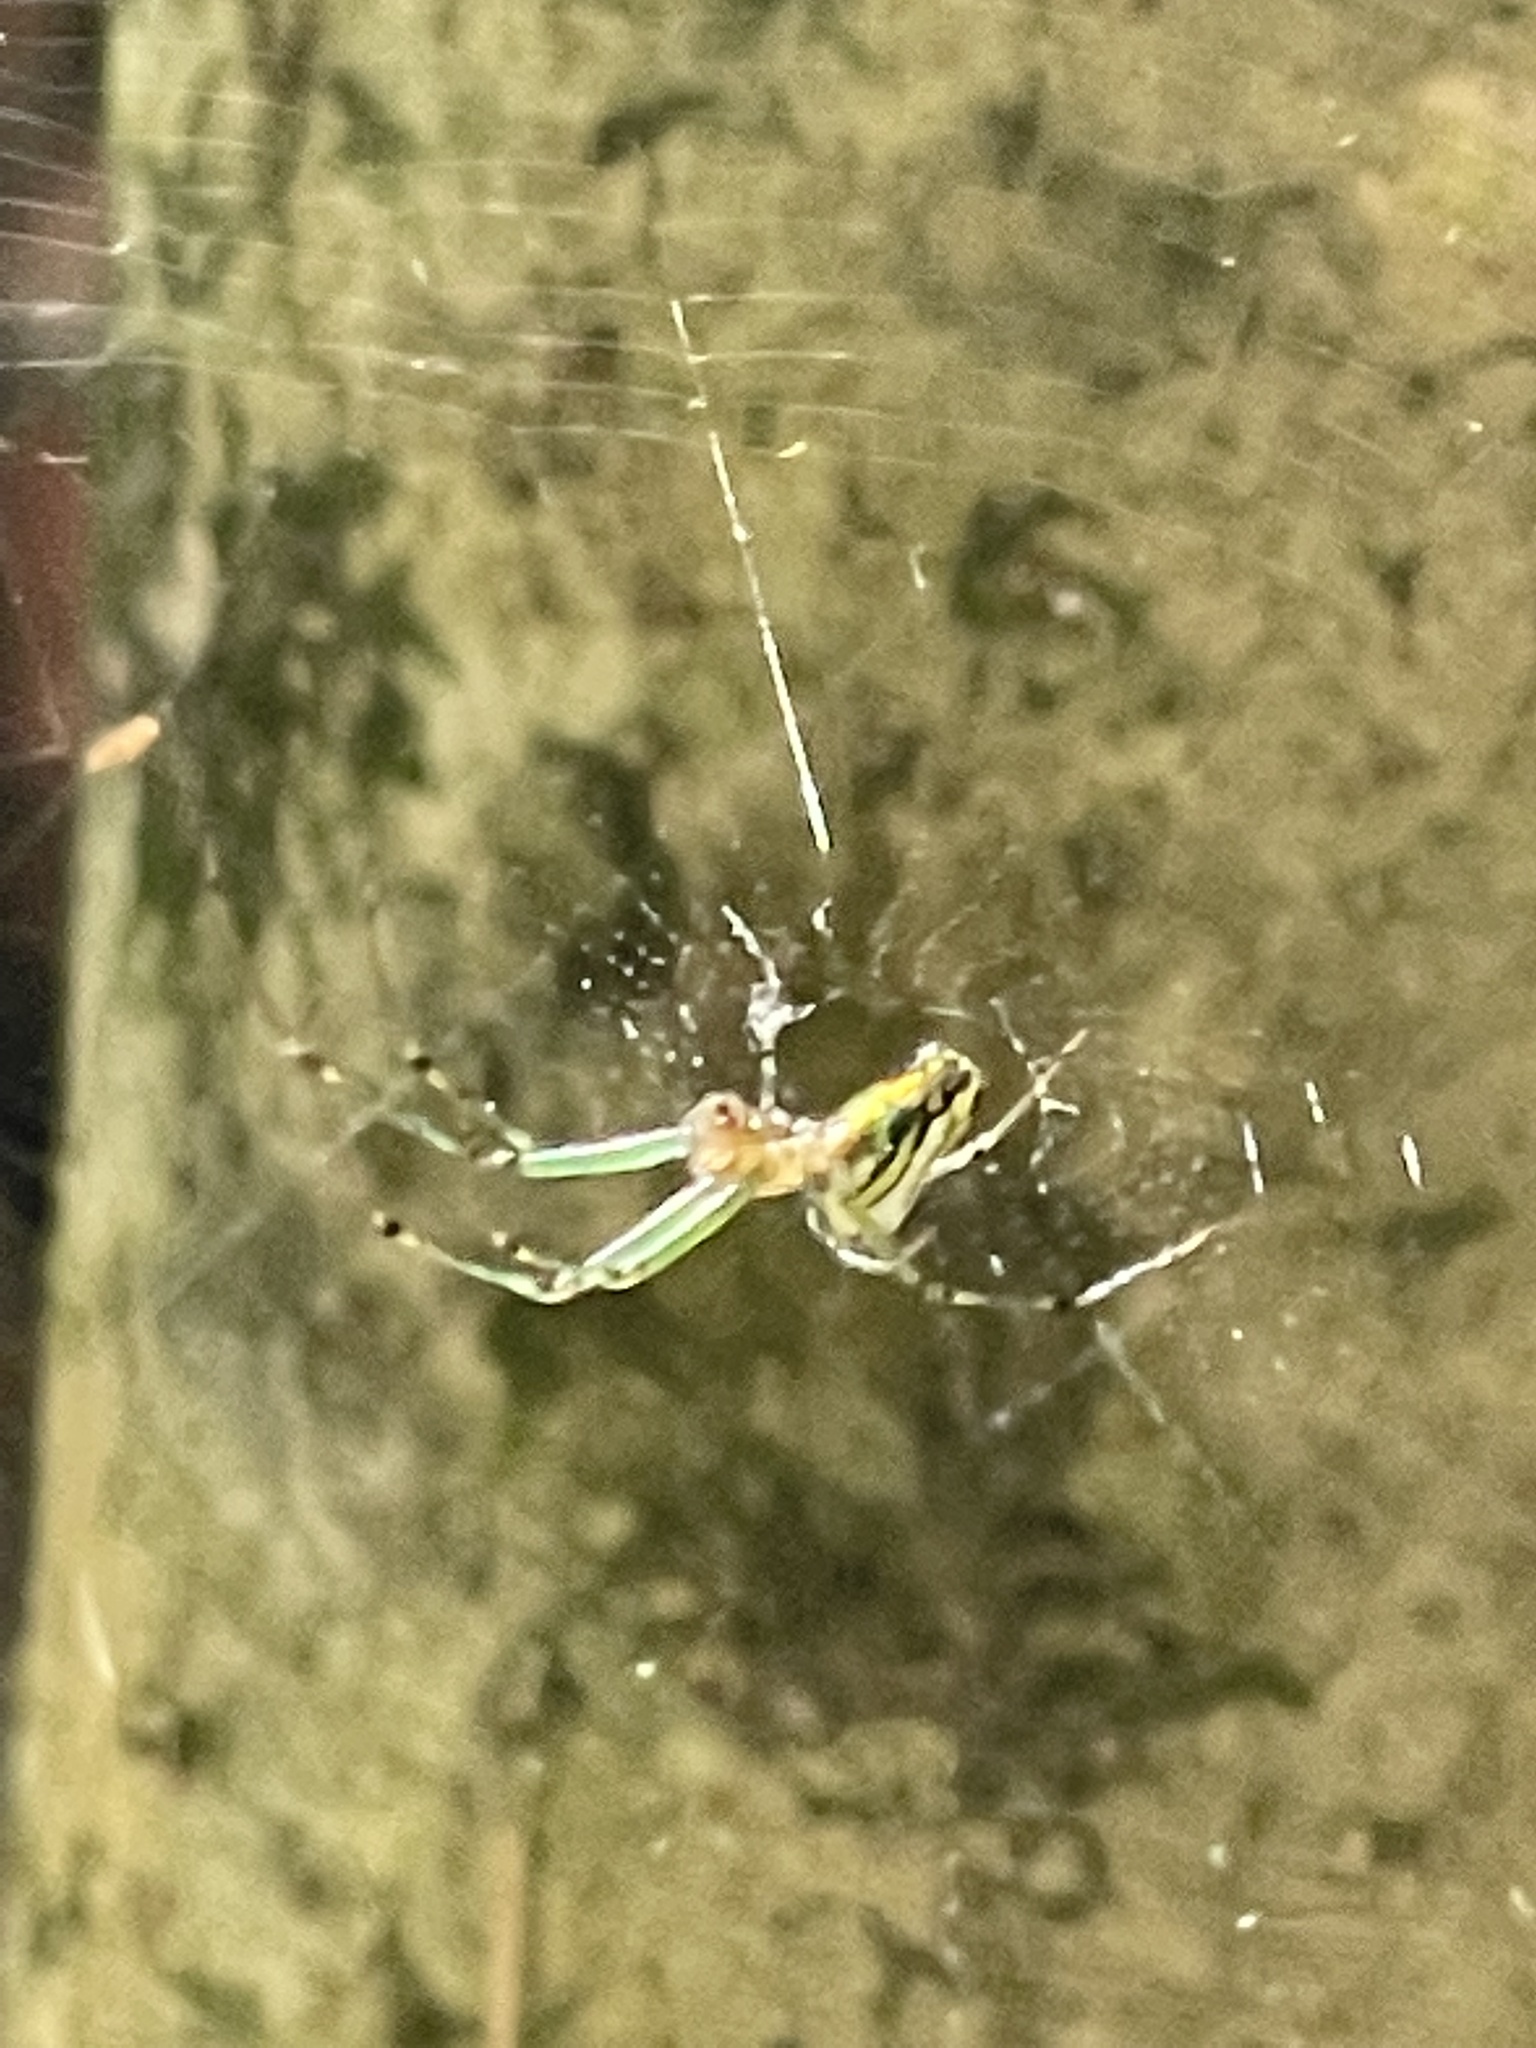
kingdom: Animalia
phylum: Arthropoda
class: Arachnida
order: Araneae
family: Tetragnathidae
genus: Leucauge
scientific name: Leucauge venusta
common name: Longjawed orb weavers
